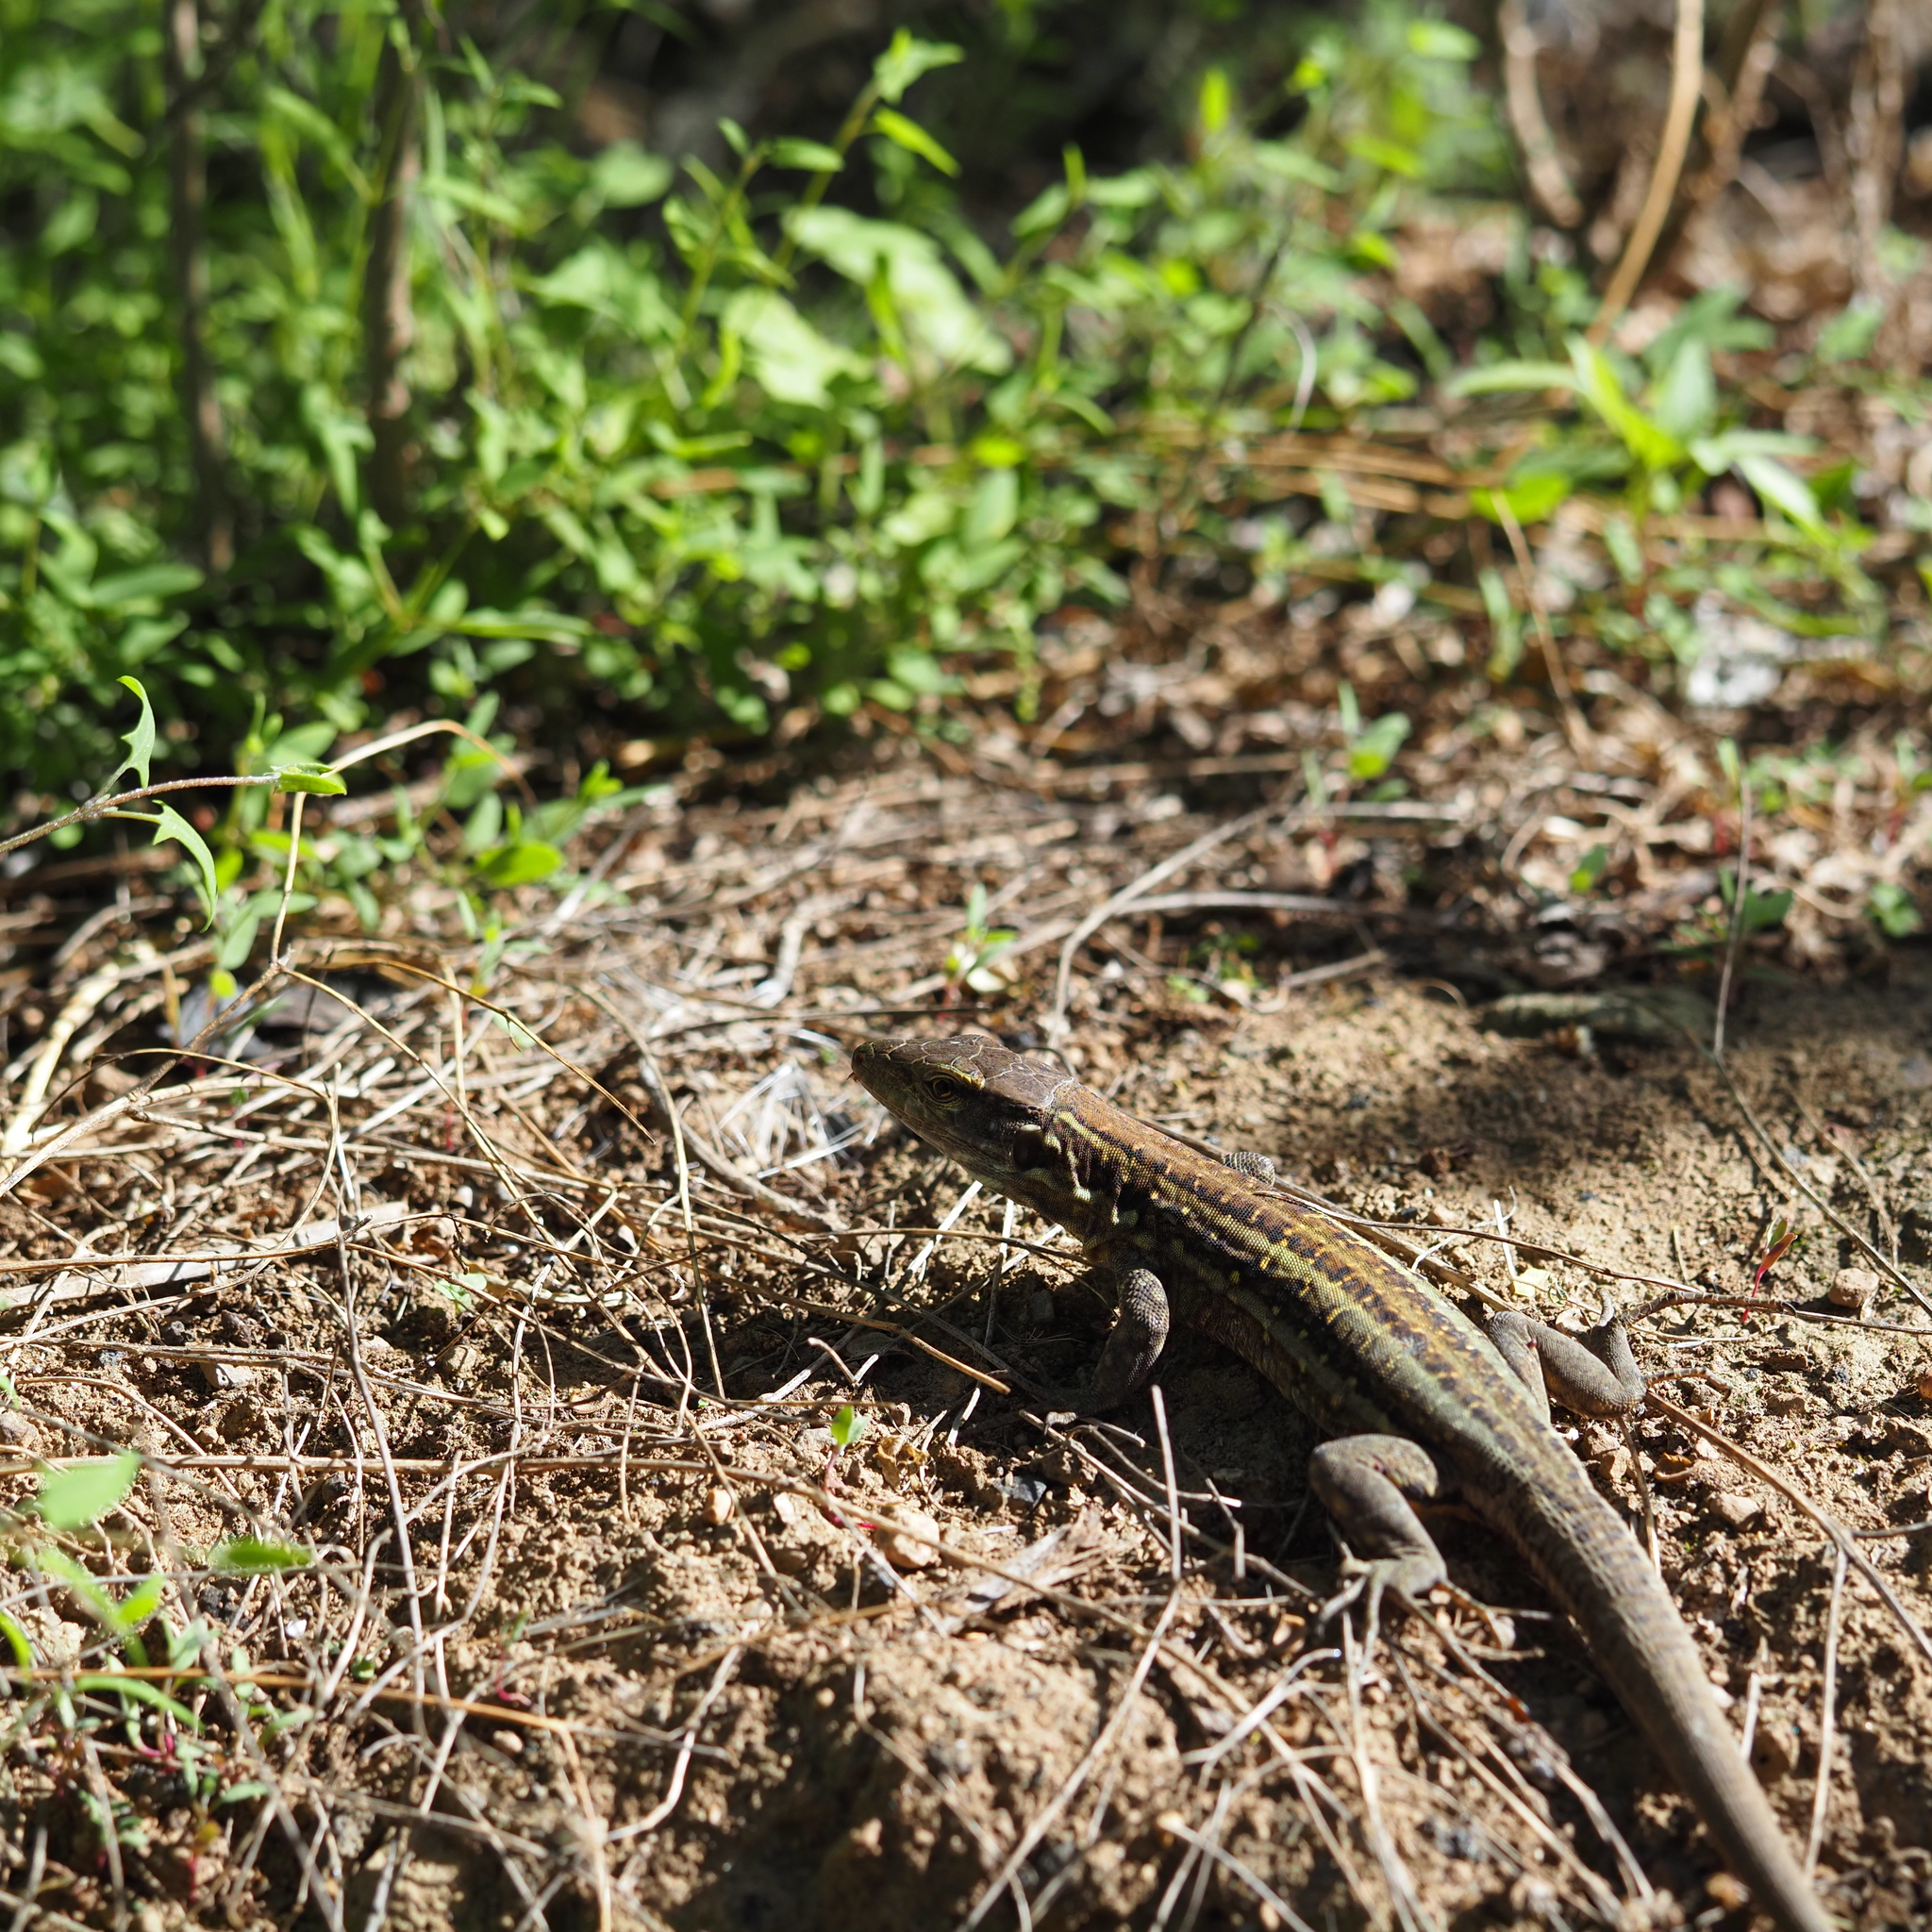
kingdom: Animalia
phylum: Chordata
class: Squamata
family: Lacertidae
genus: Gallotia
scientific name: Gallotia galloti
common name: Gallot's lizard
